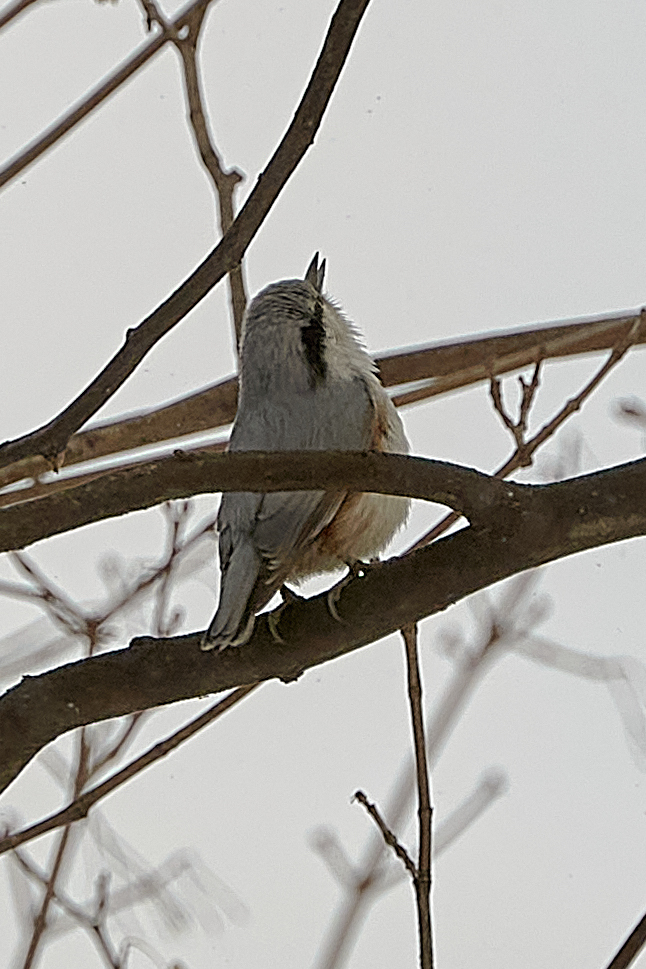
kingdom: Animalia
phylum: Chordata
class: Aves
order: Passeriformes
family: Sittidae
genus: Sitta
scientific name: Sitta europaea
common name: Eurasian nuthatch
